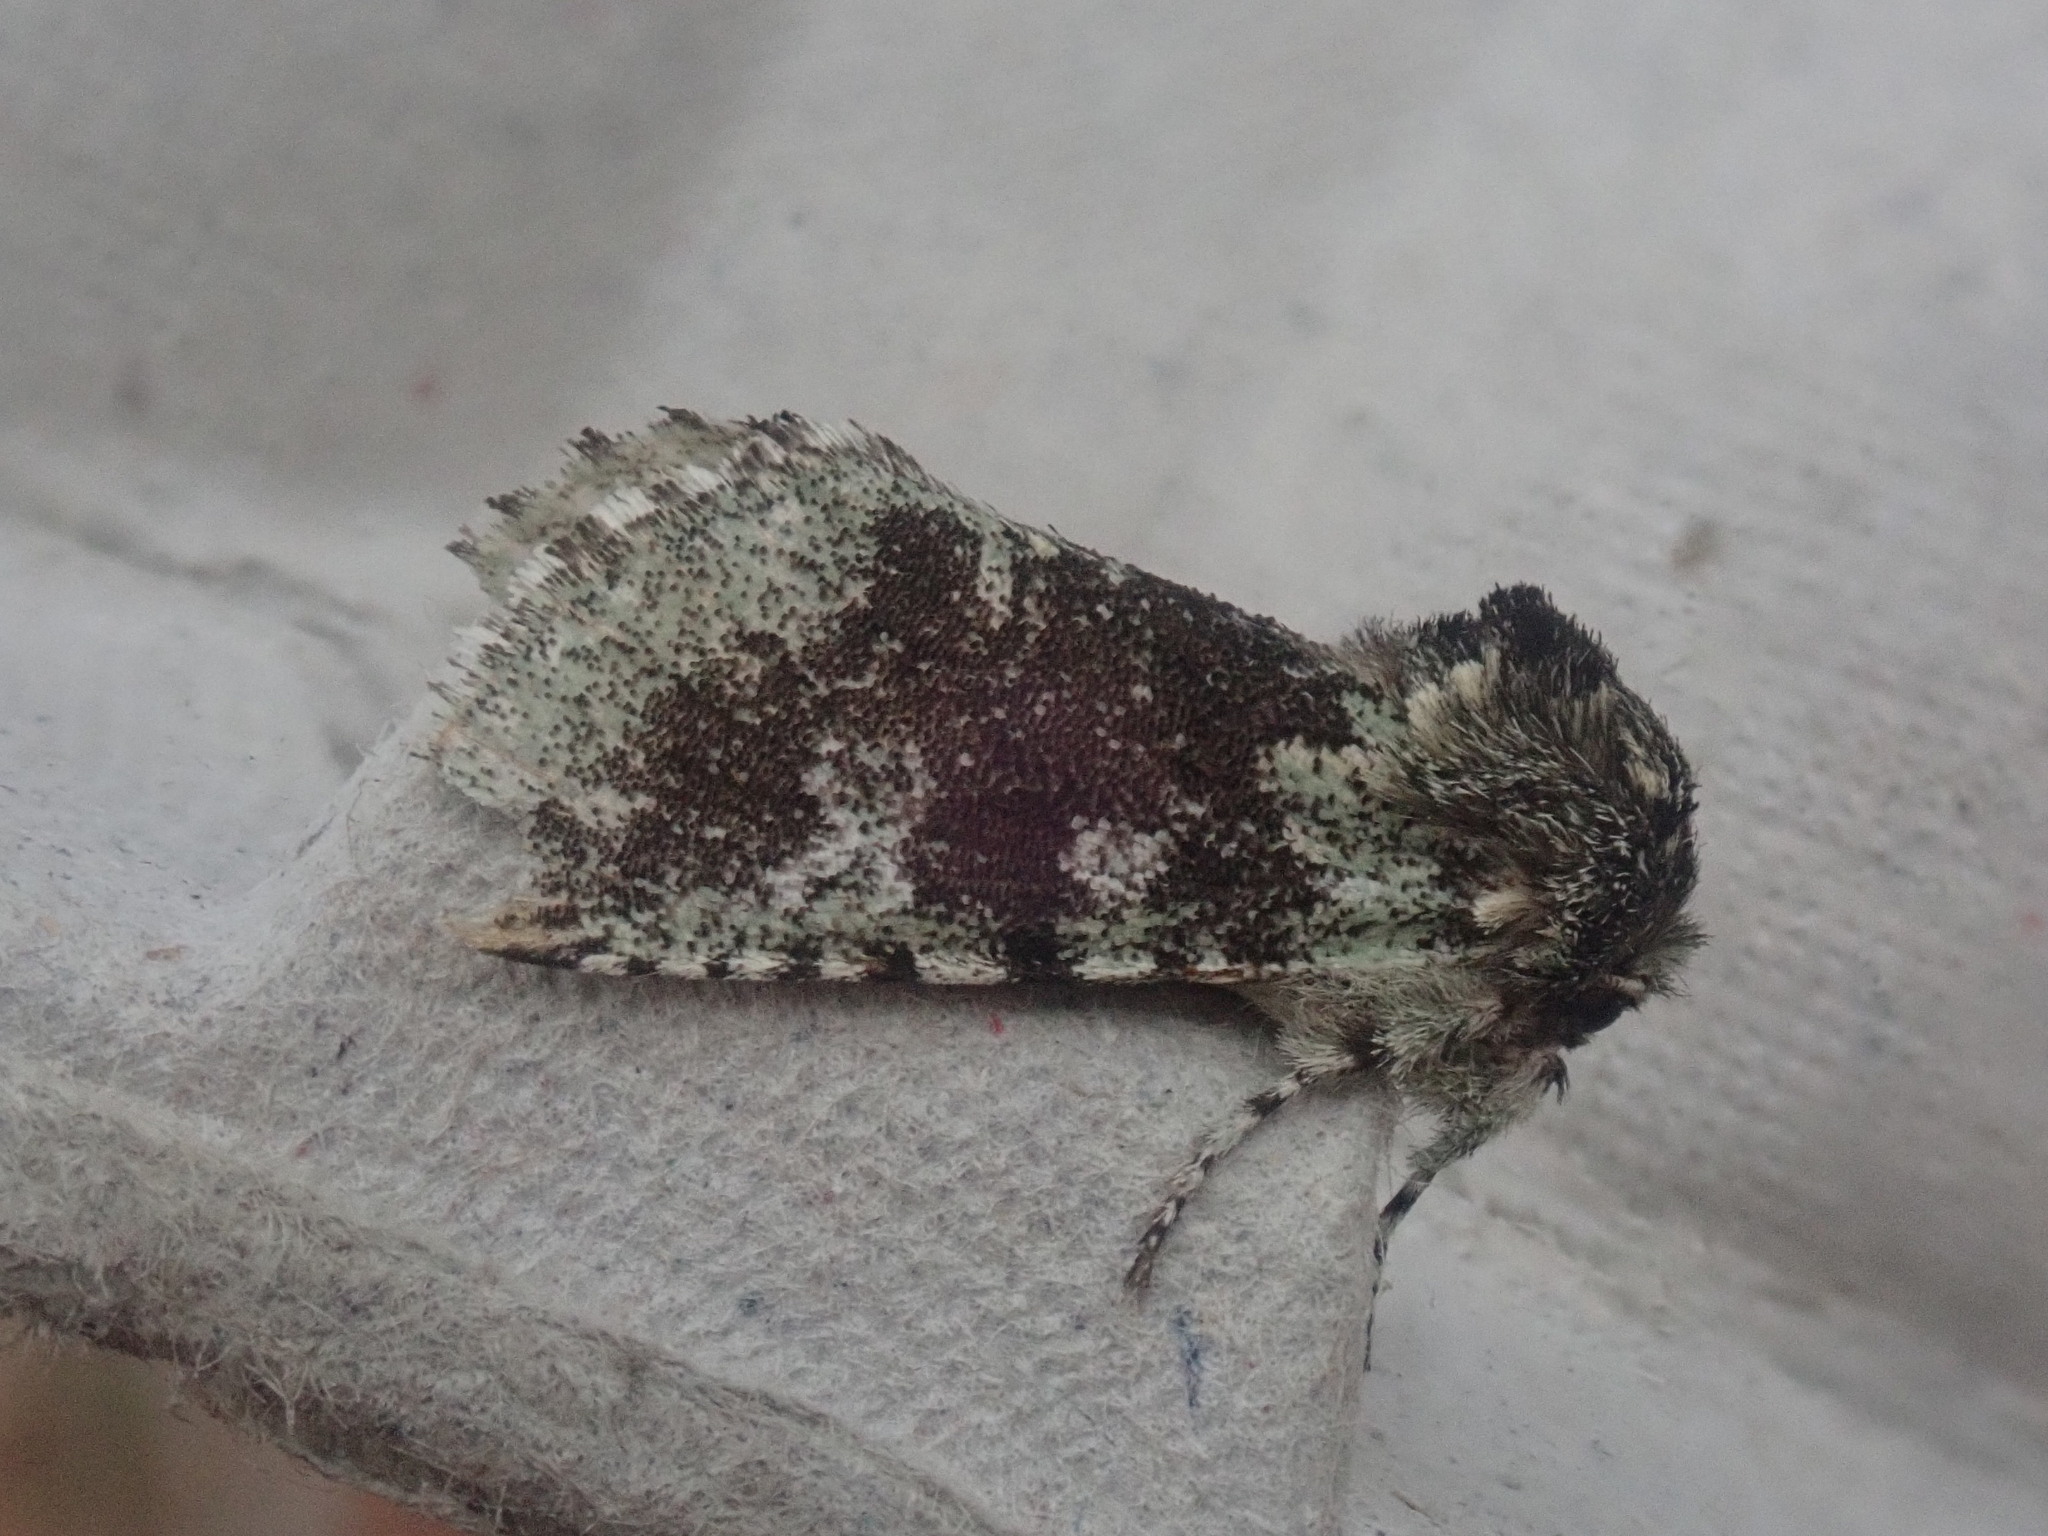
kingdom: Animalia
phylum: Arthropoda
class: Insecta
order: Lepidoptera
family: Noctuidae
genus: Feralia
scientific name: Feralia major
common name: Major sallow
